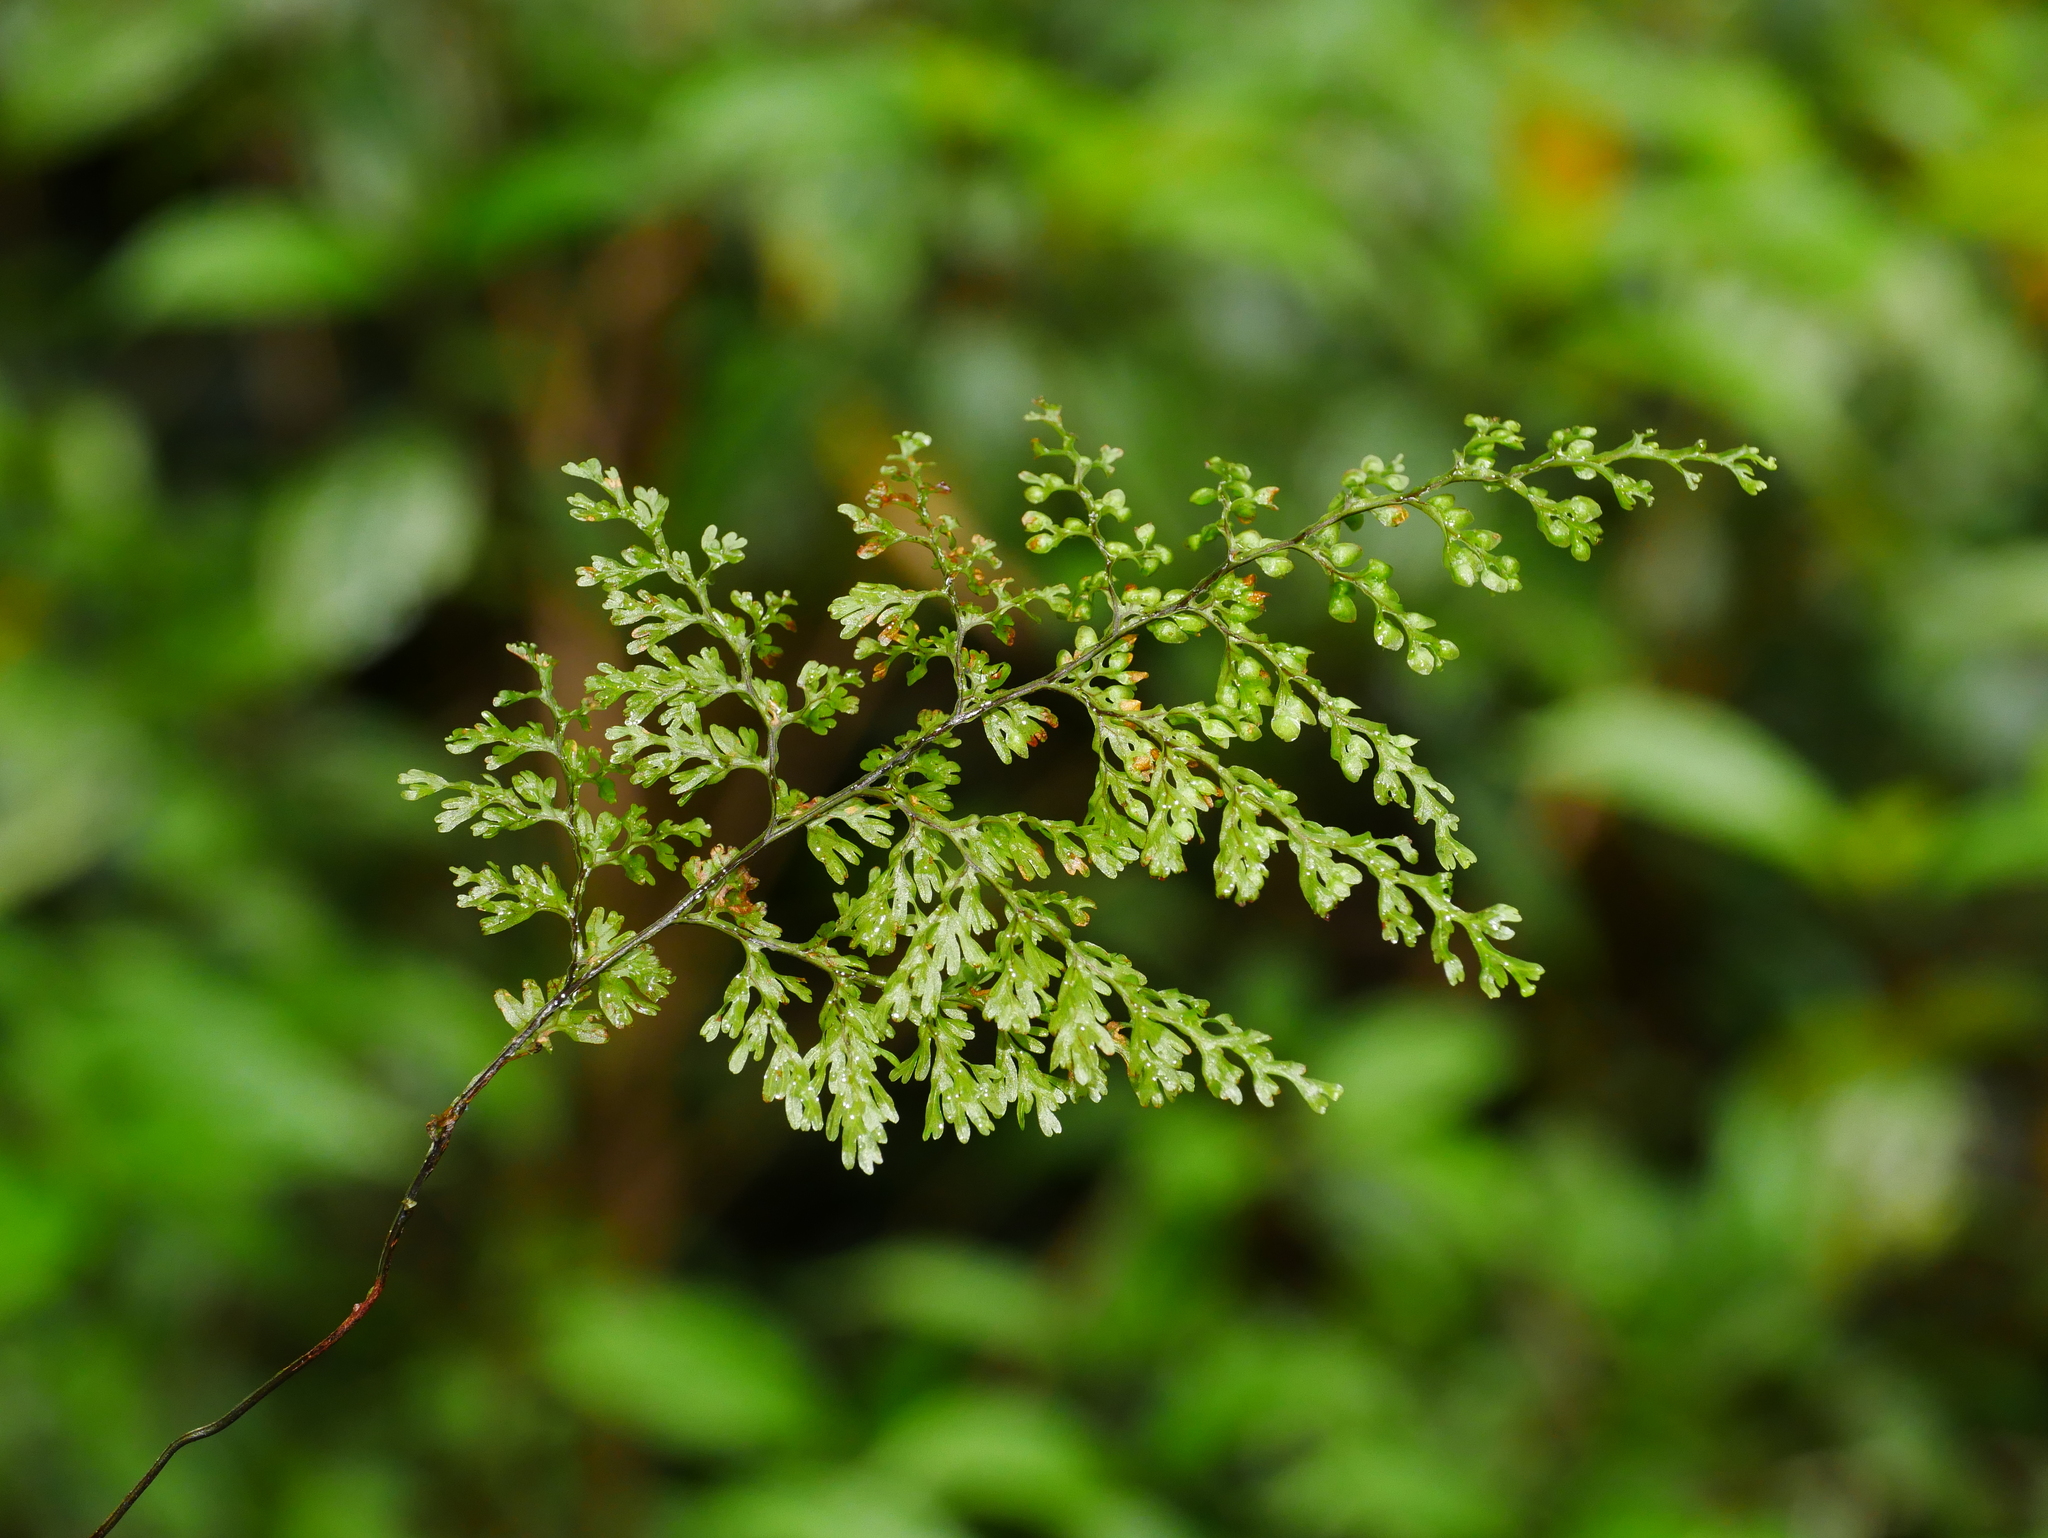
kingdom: Plantae
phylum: Tracheophyta
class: Polypodiopsida
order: Hymenophyllales
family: Hymenophyllaceae
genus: Hymenophyllum
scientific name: Hymenophyllum punctisorum
